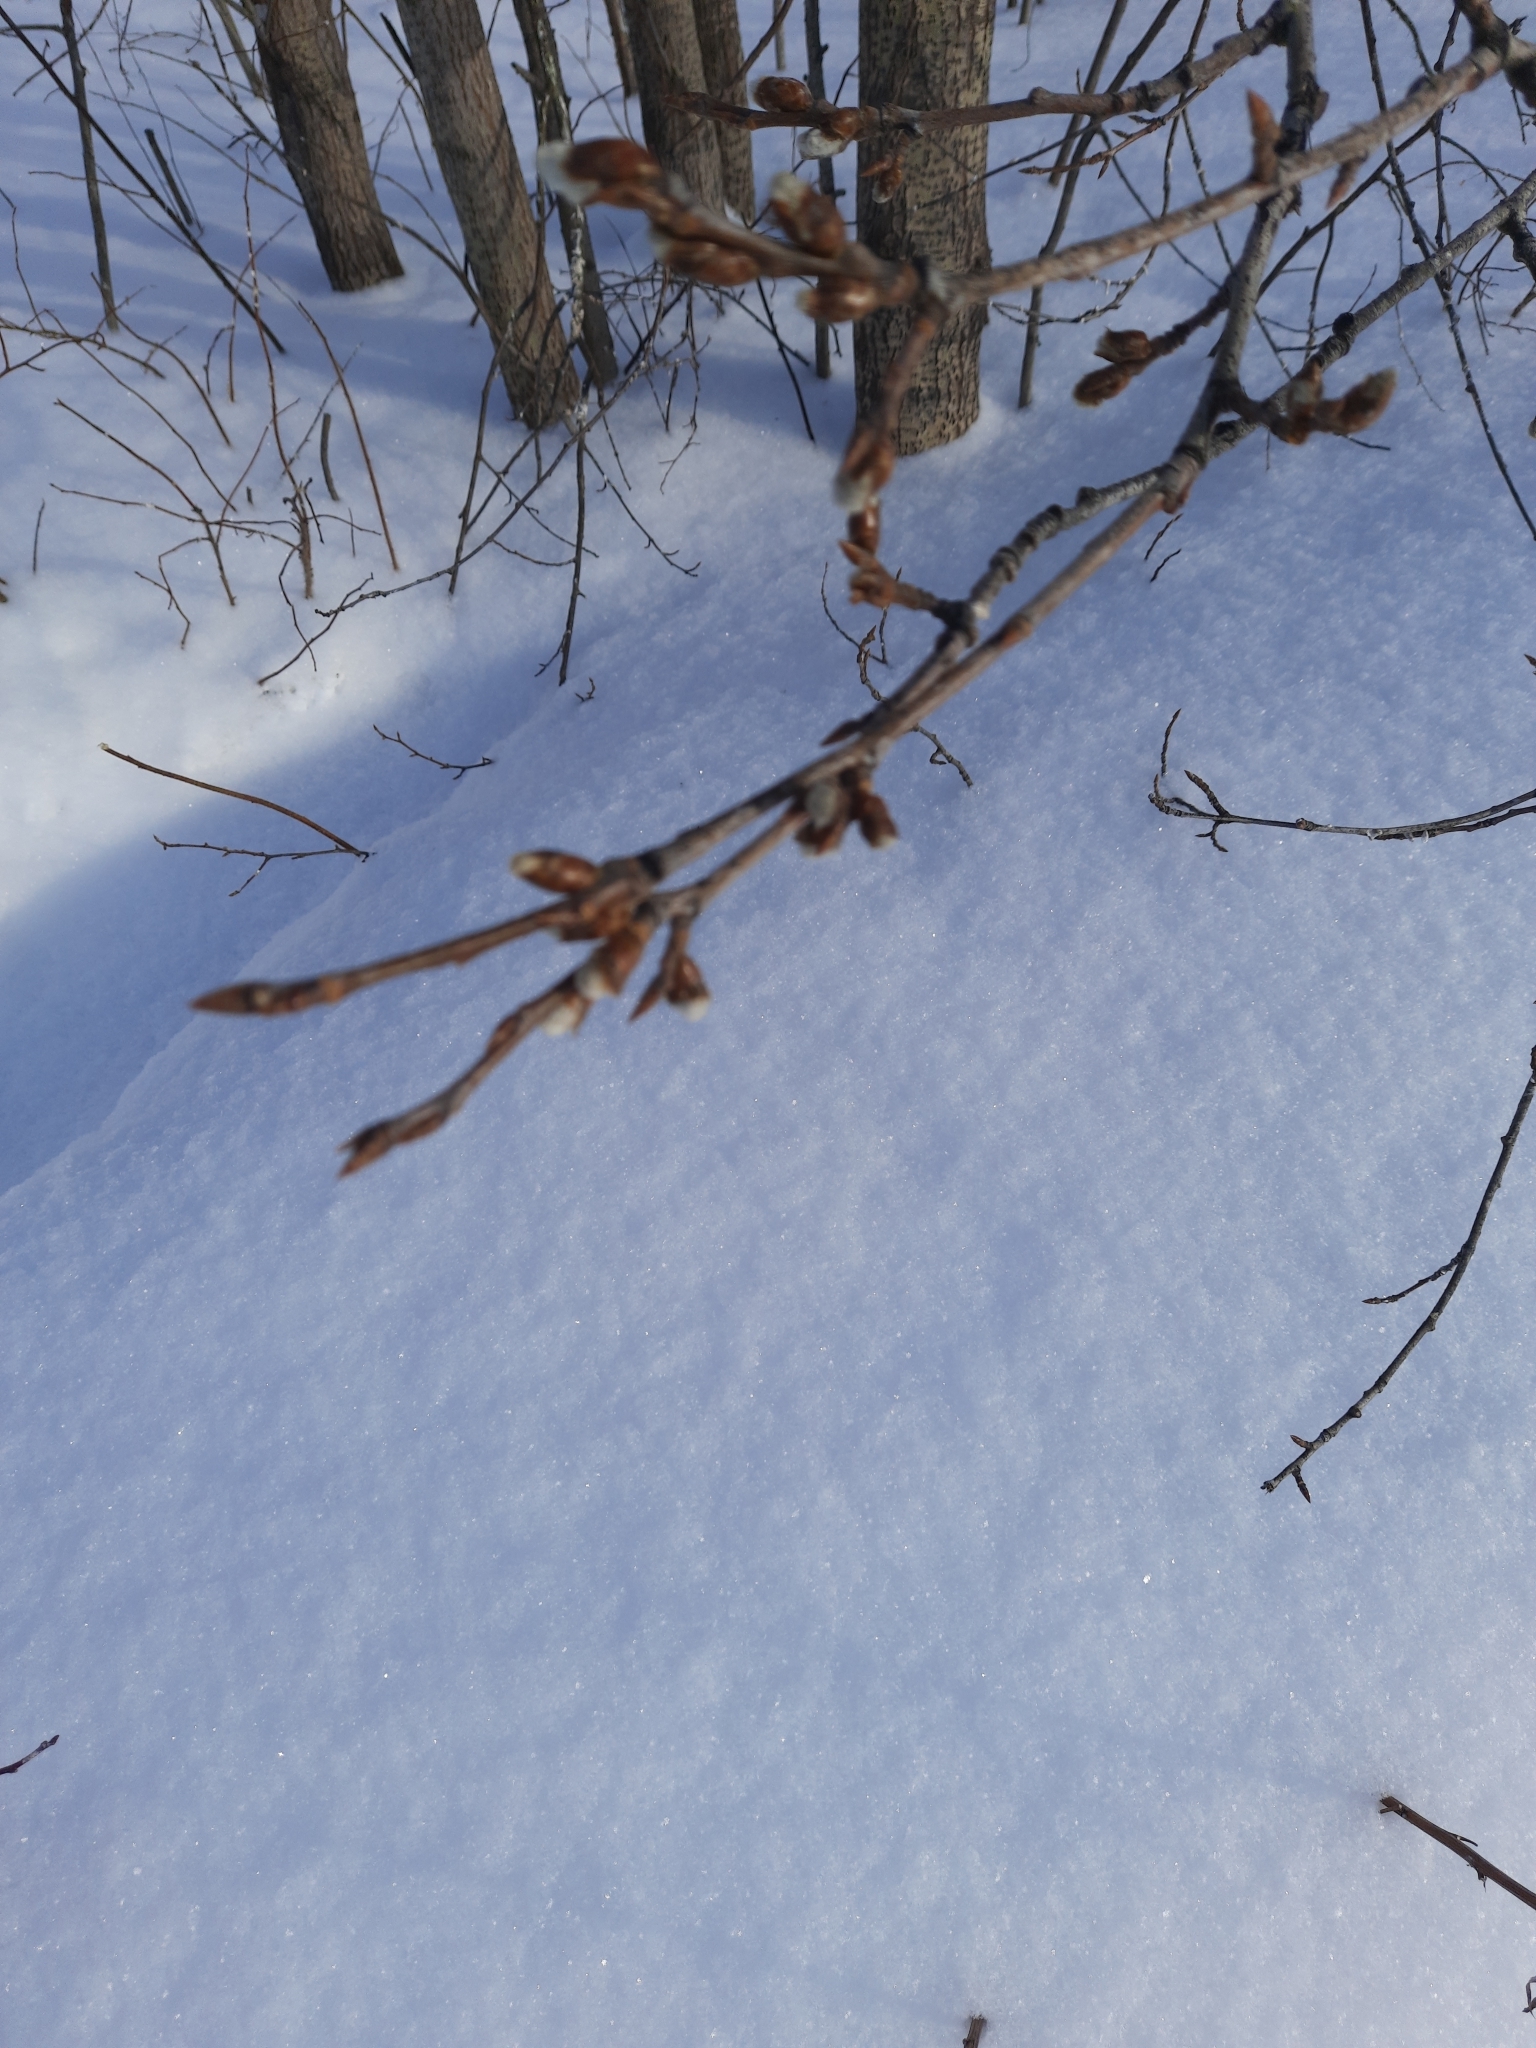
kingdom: Plantae
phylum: Tracheophyta
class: Magnoliopsida
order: Malpighiales
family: Salicaceae
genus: Populus
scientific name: Populus tremula
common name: European aspen
